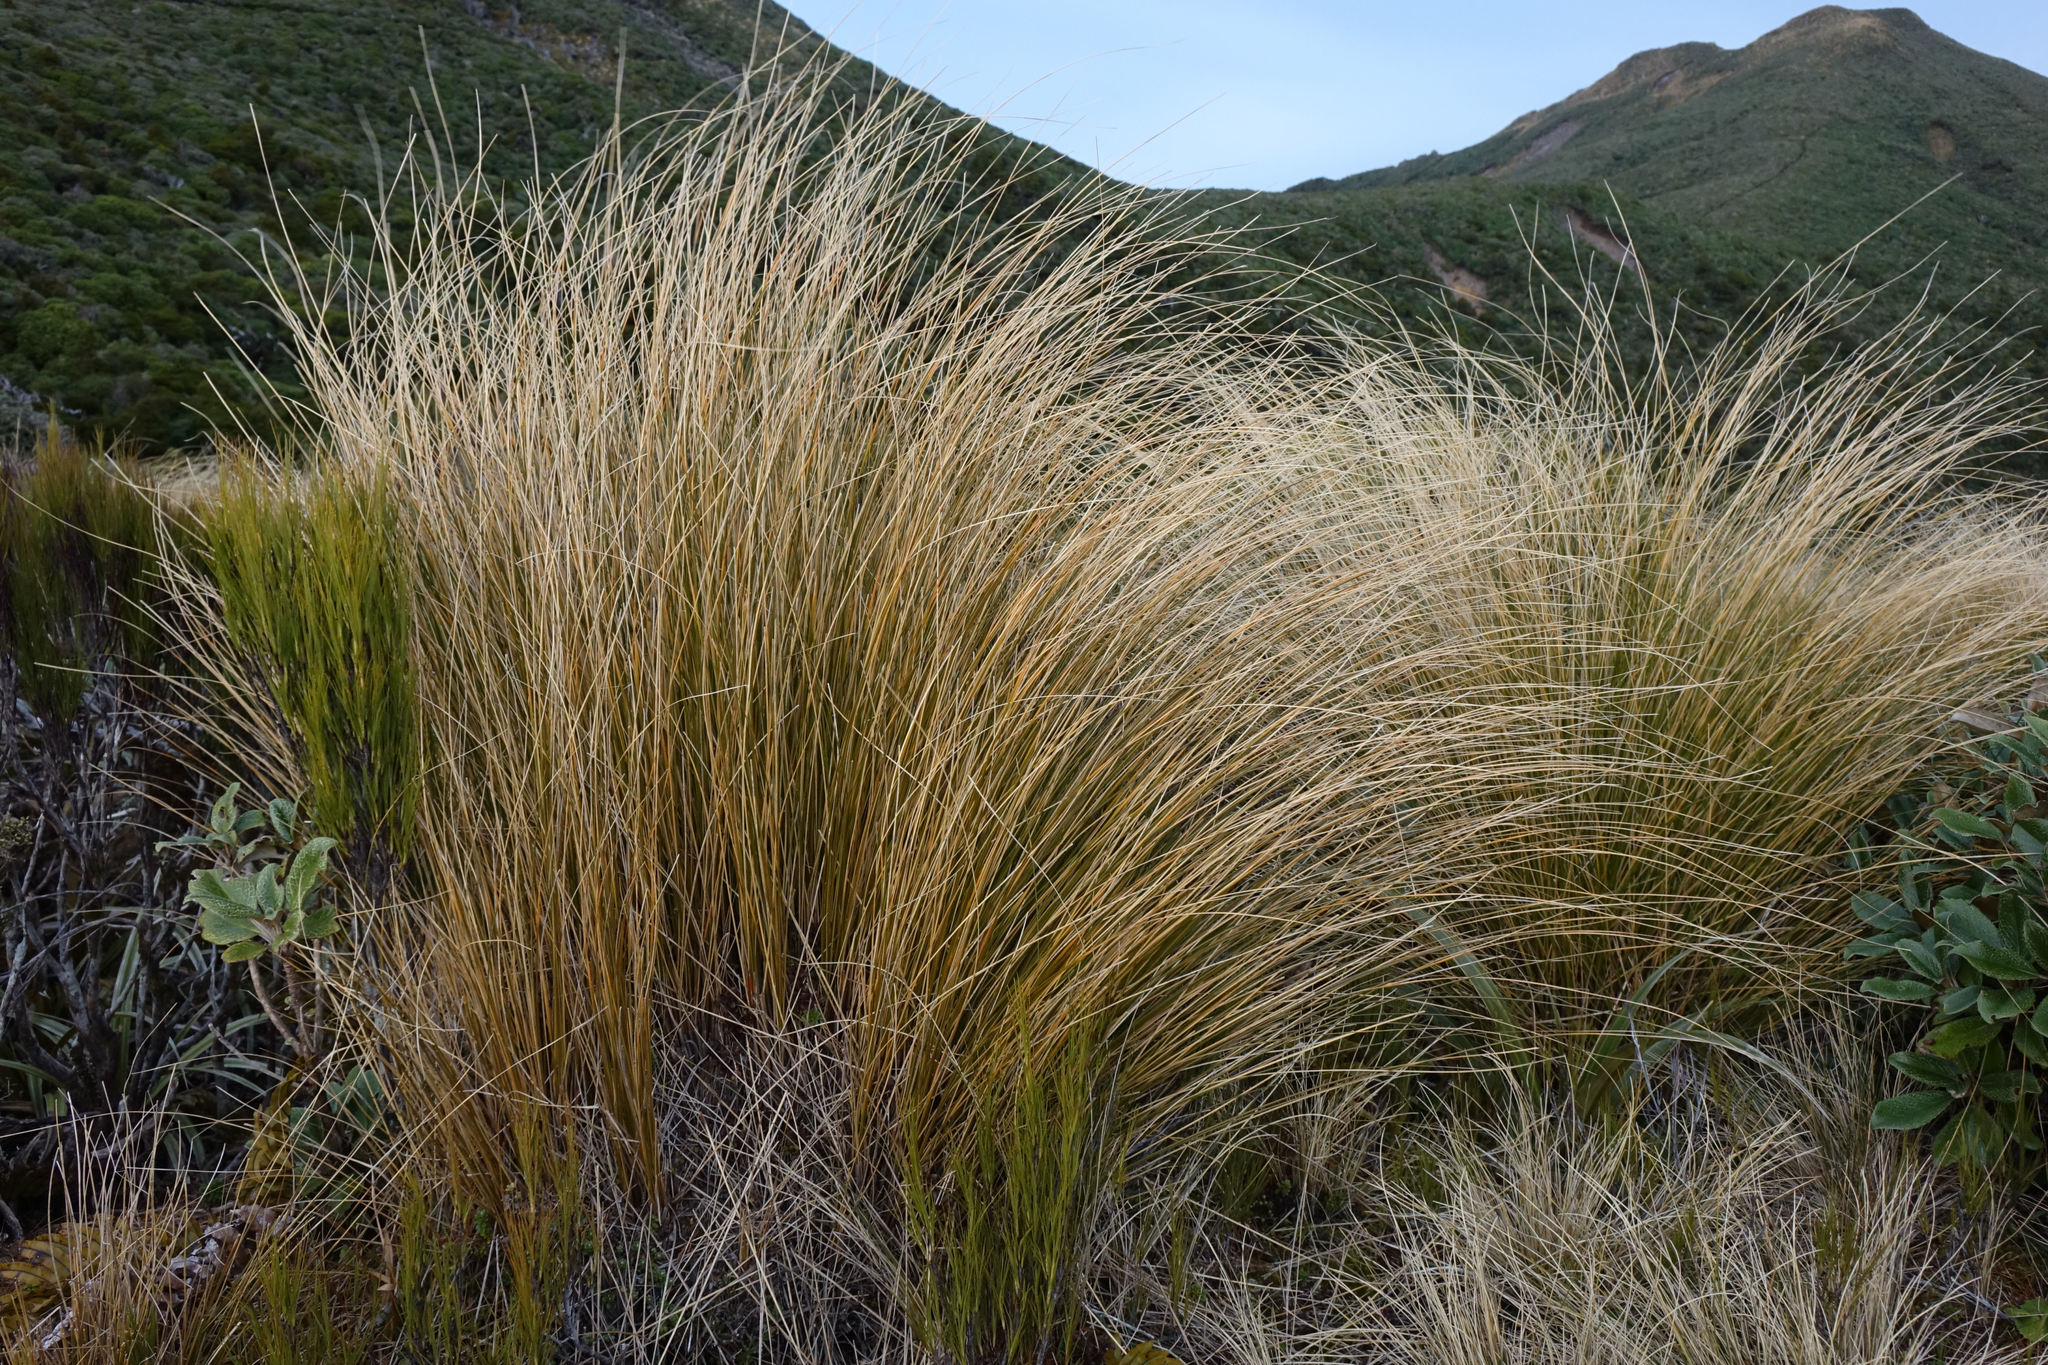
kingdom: Plantae
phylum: Tracheophyta
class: Liliopsida
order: Poales
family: Poaceae
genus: Chionochloa
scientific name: Chionochloa rubra
